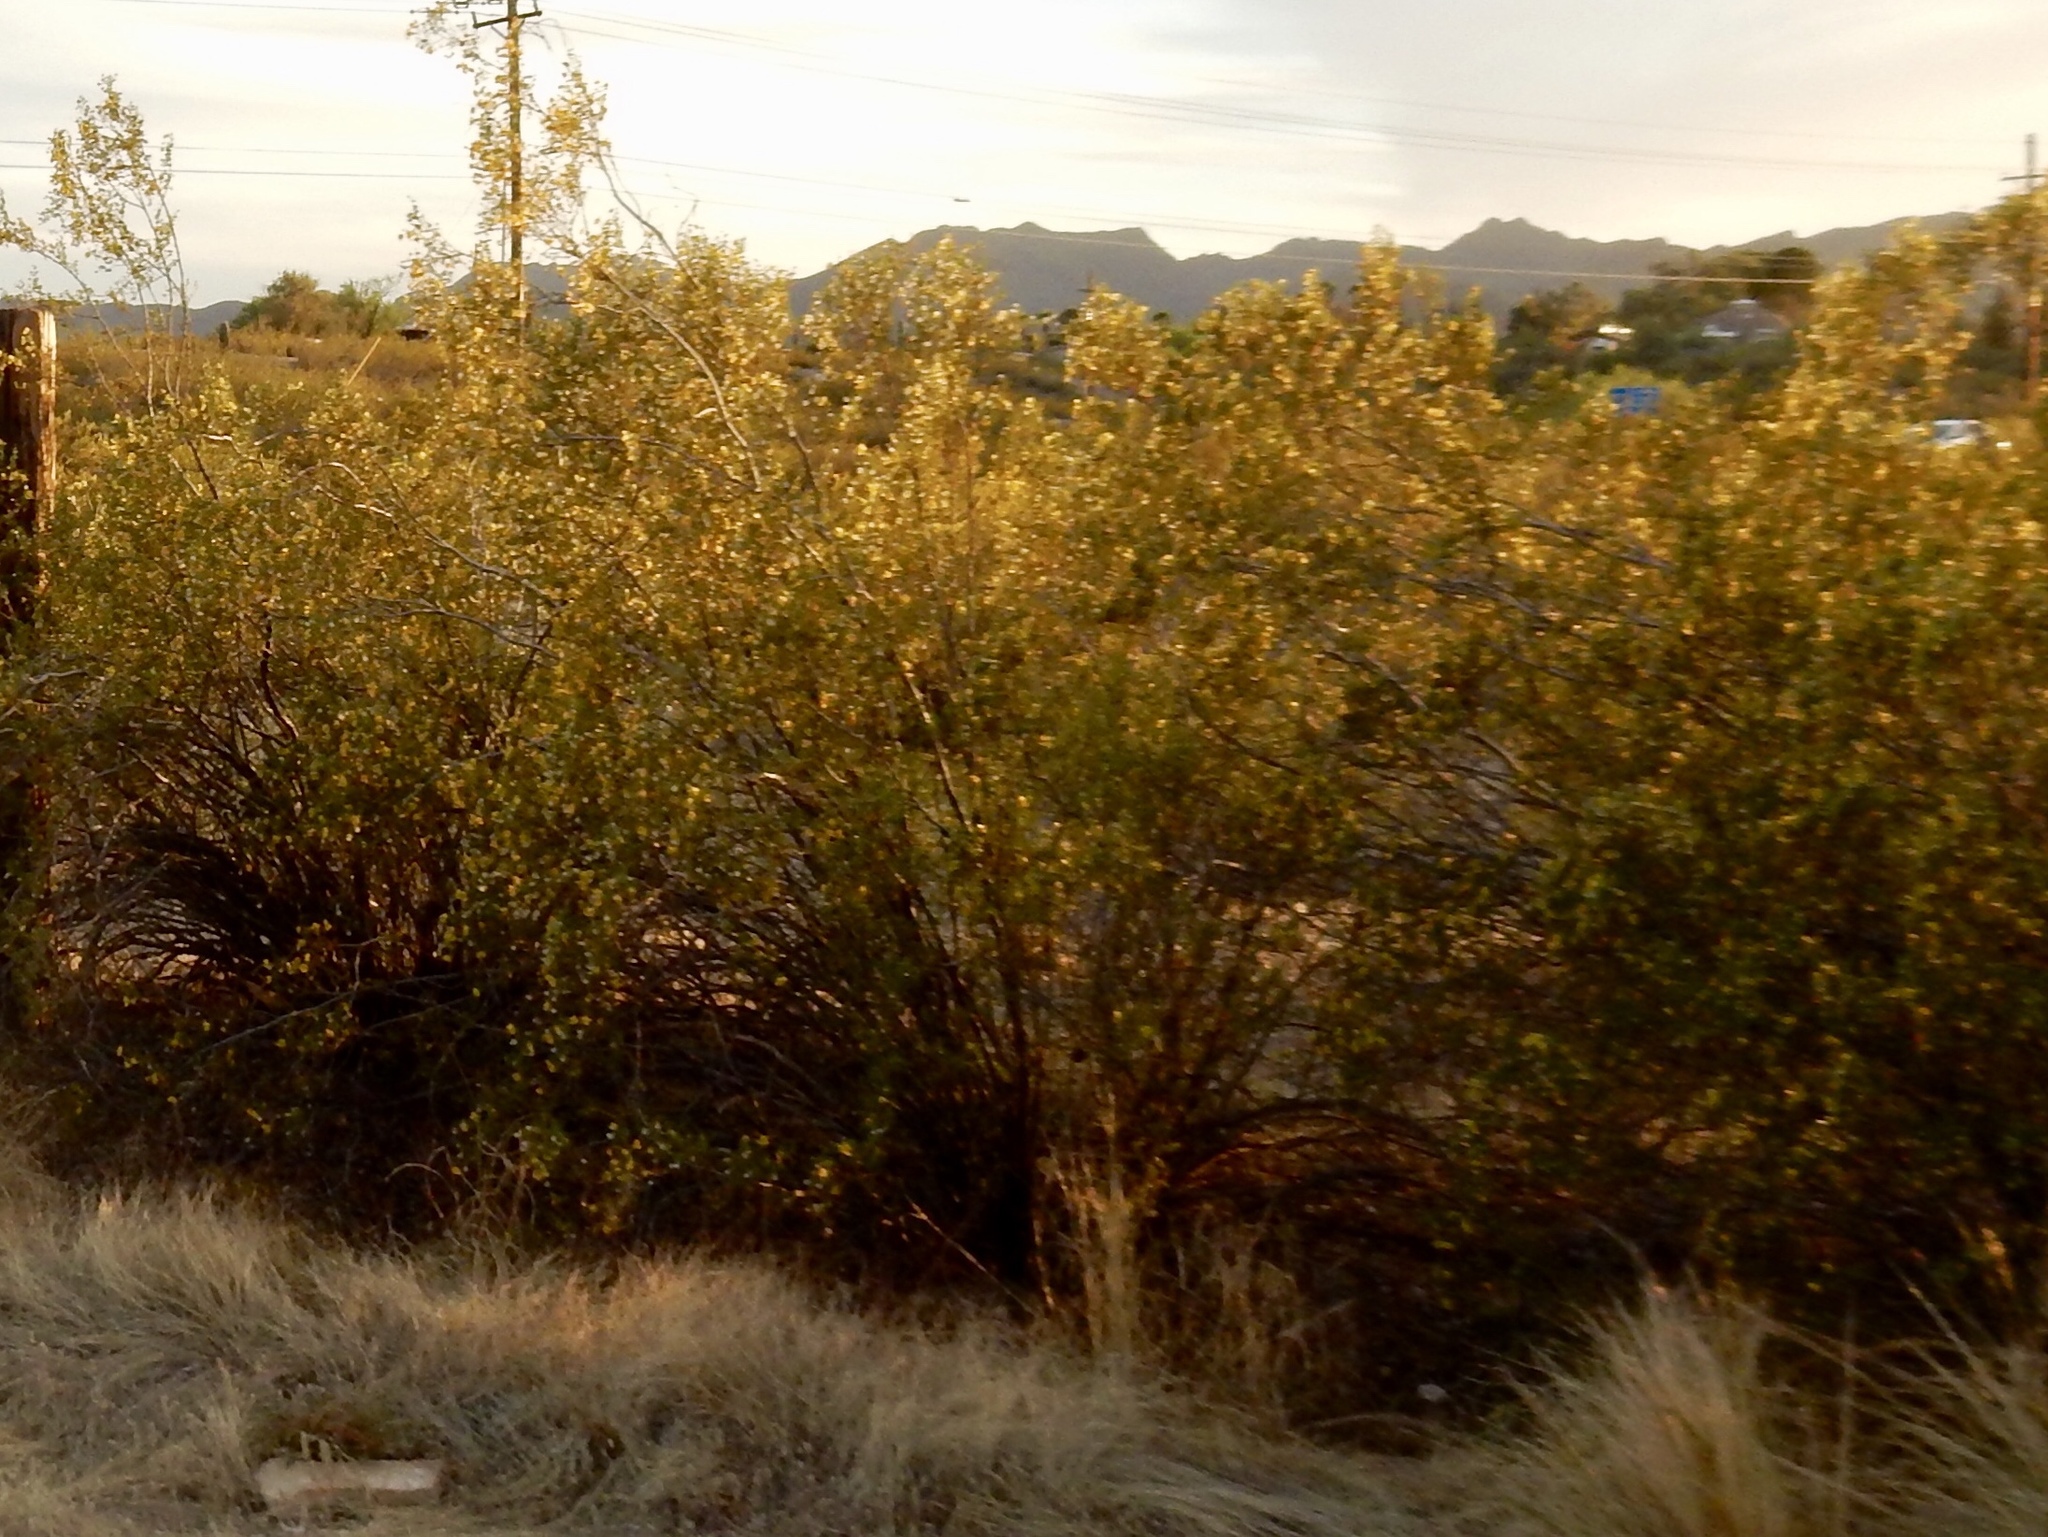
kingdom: Plantae
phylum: Tracheophyta
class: Magnoliopsida
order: Zygophyllales
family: Zygophyllaceae
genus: Larrea
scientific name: Larrea tridentata
